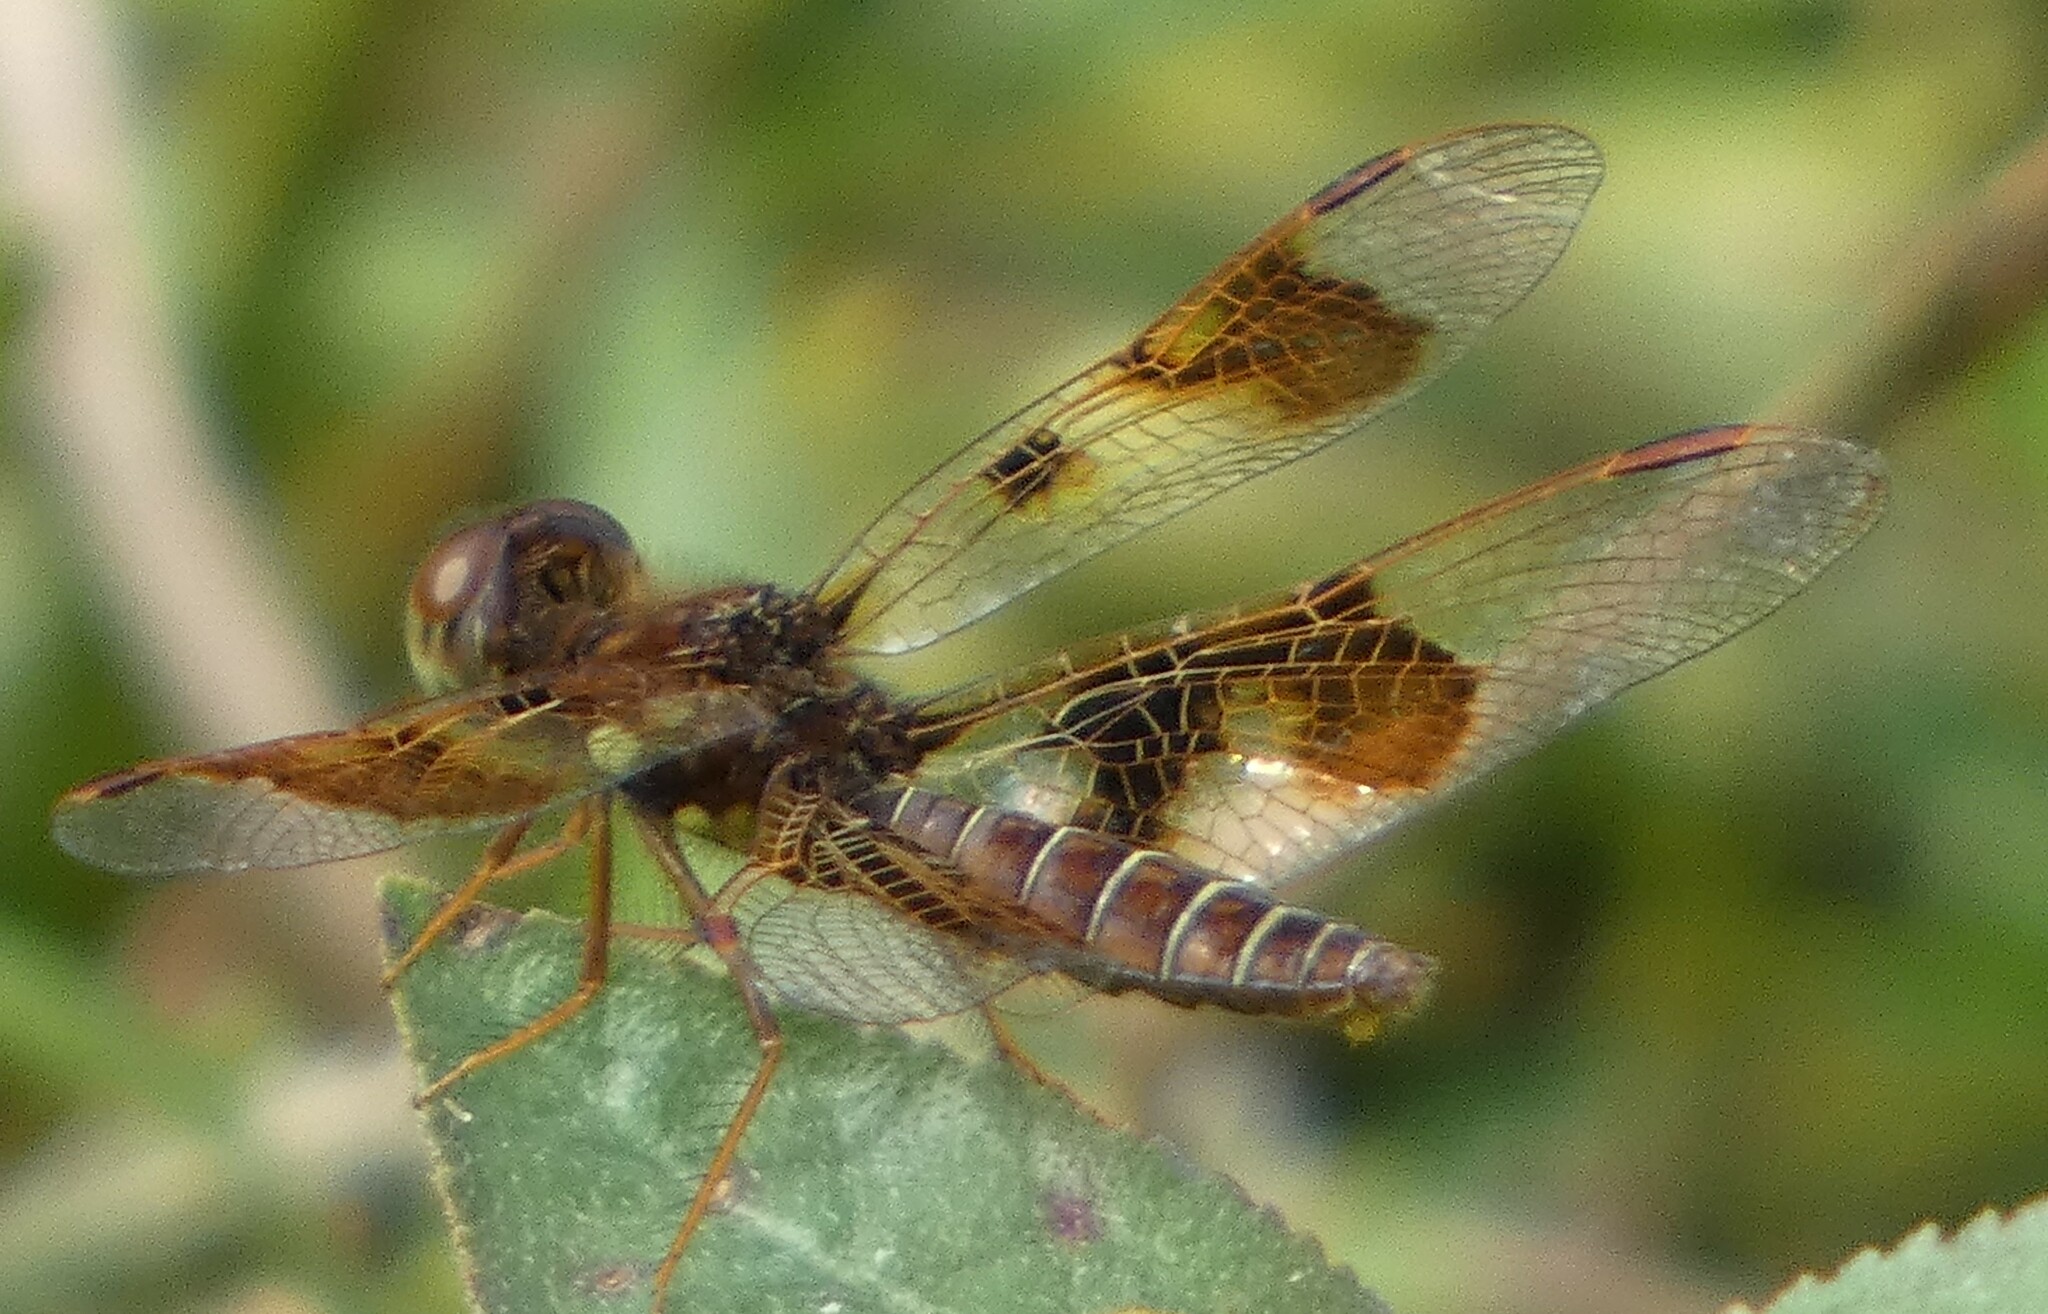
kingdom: Animalia
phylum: Arthropoda
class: Insecta
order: Odonata
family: Libellulidae
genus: Perithemis
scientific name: Perithemis tenera
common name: Eastern amberwing
